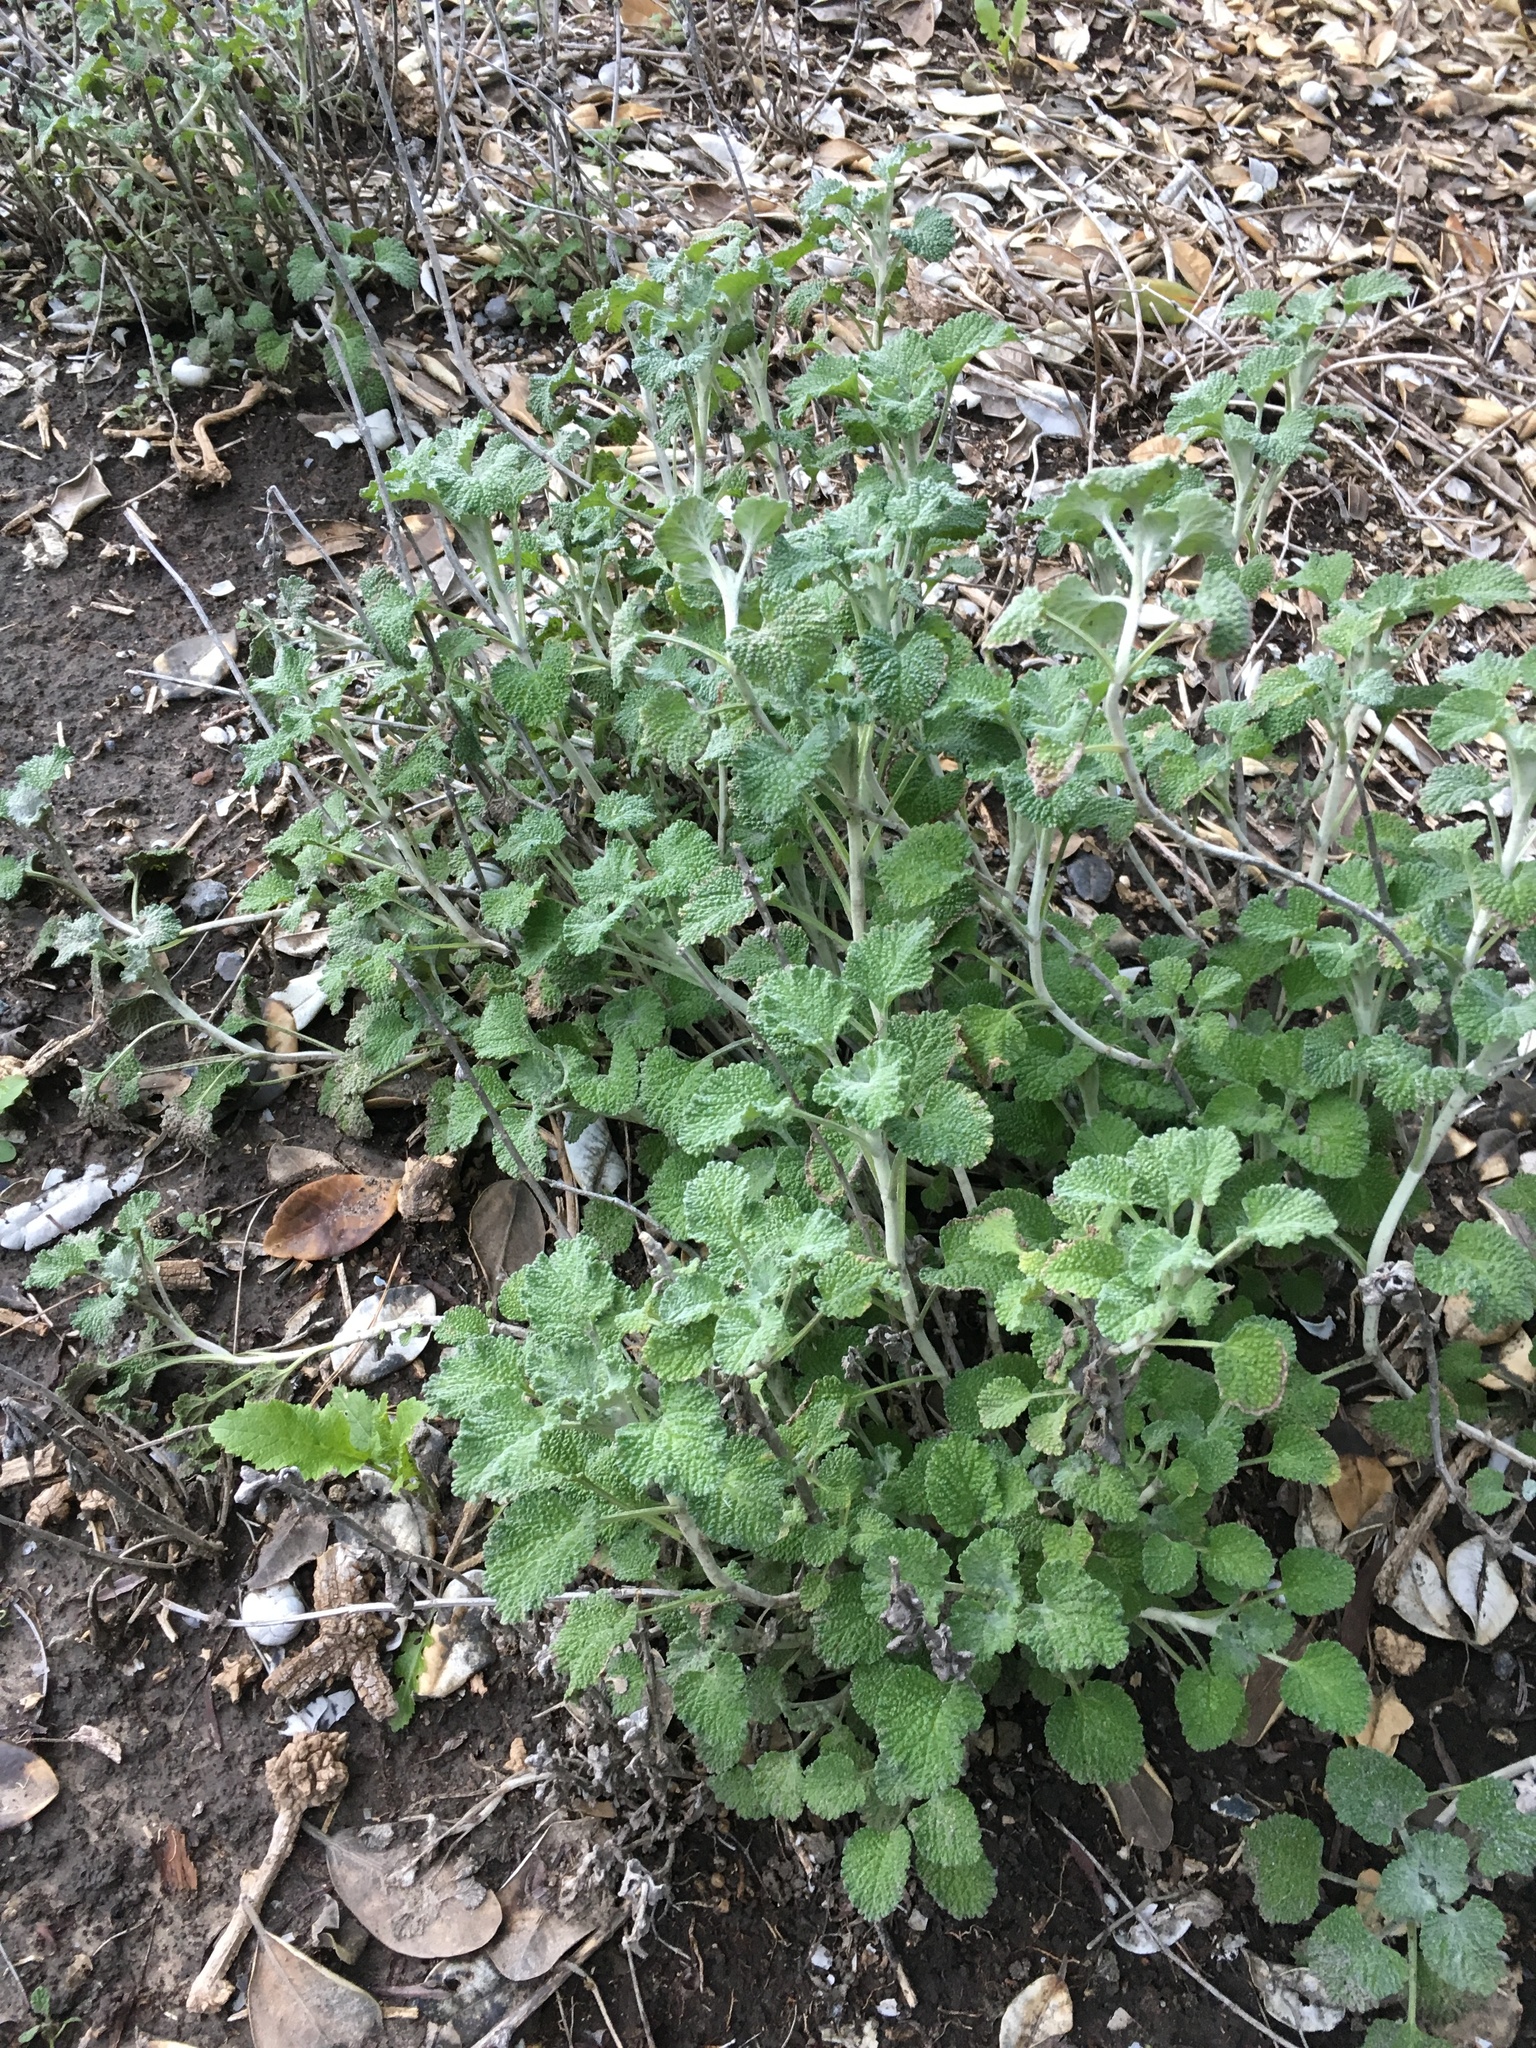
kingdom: Plantae
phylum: Tracheophyta
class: Magnoliopsida
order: Lamiales
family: Lamiaceae
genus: Marrubium
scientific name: Marrubium vulgare
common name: Horehound
